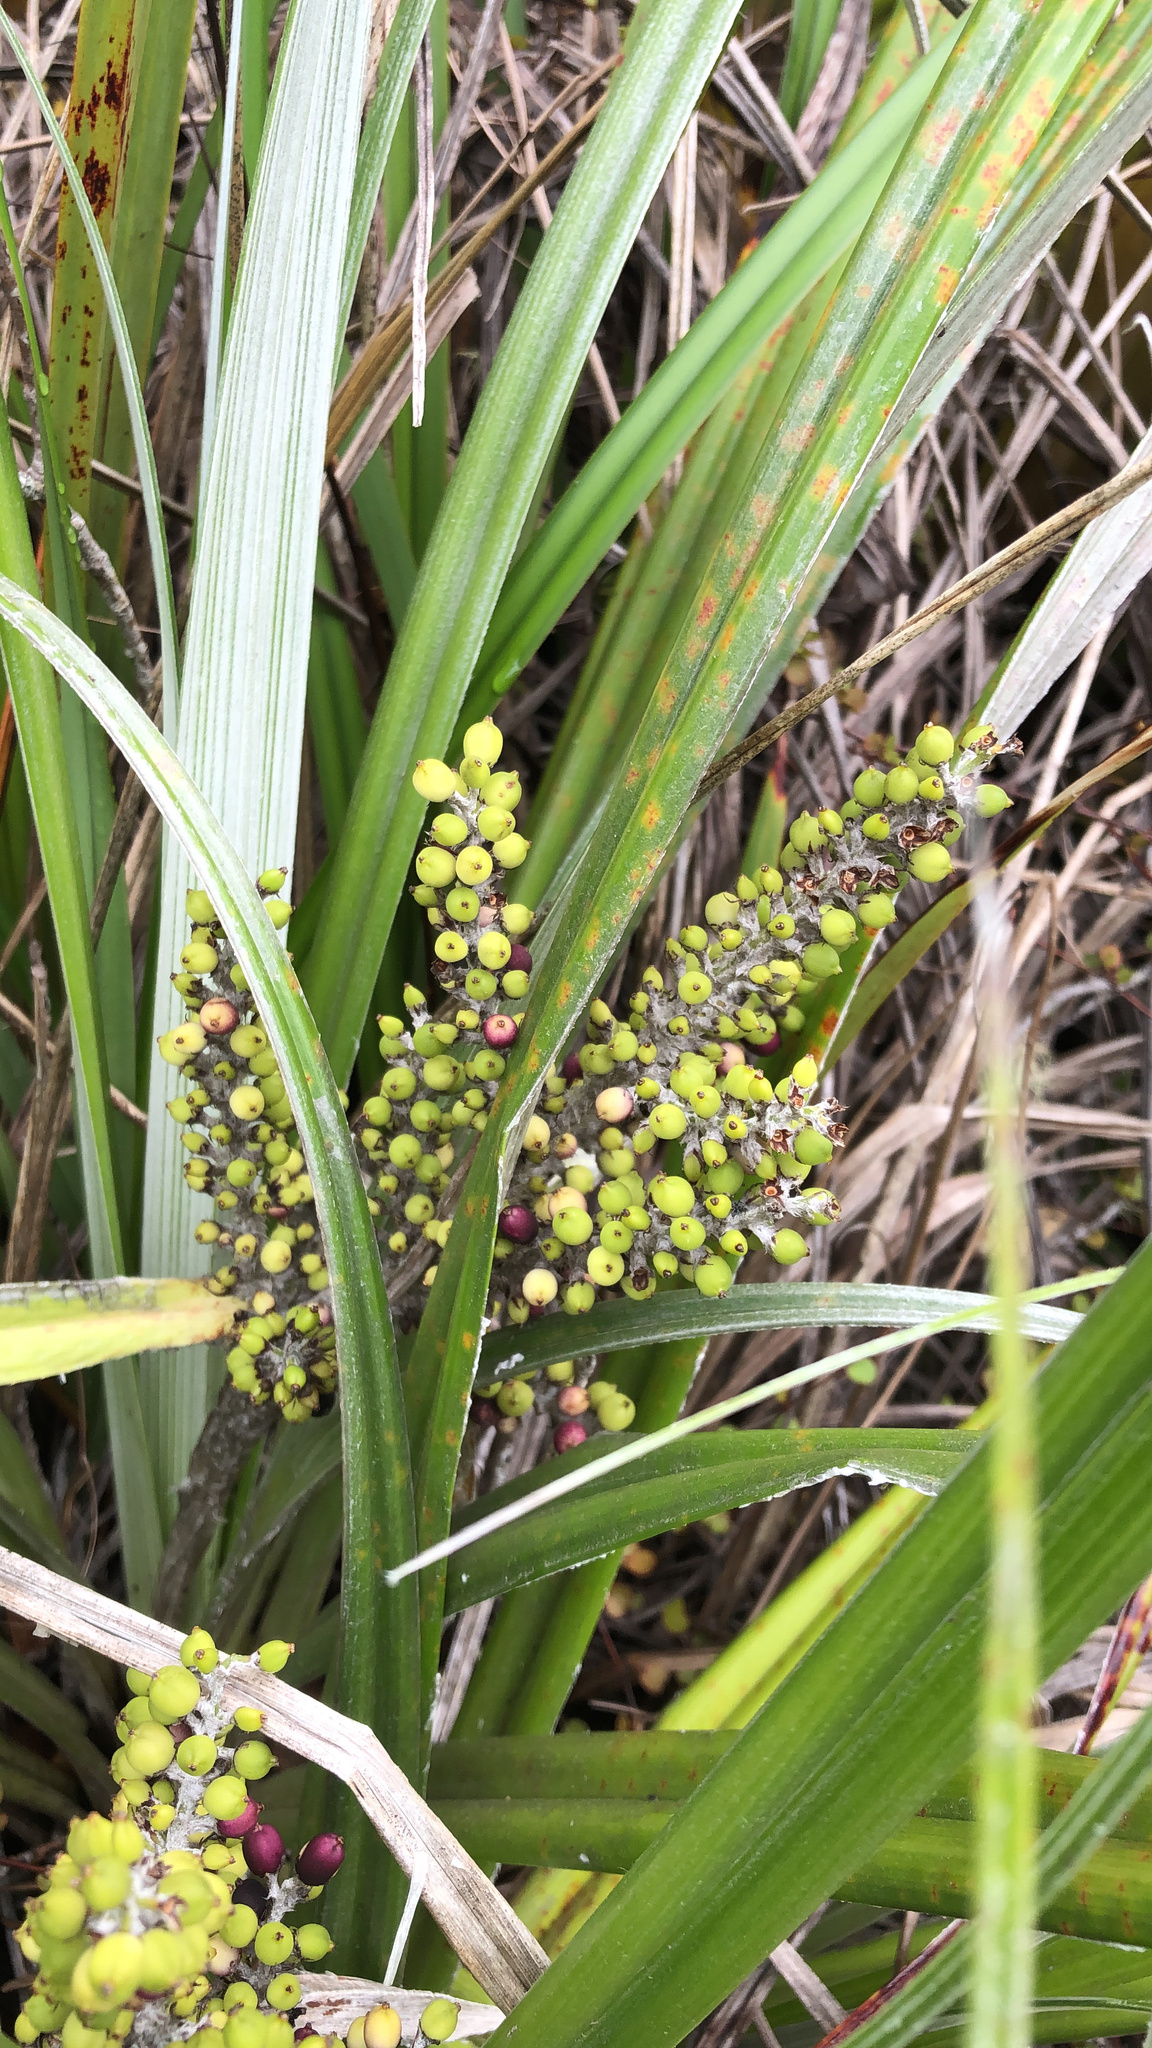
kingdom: Plantae
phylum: Tracheophyta
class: Liliopsida
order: Asparagales
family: Asteliaceae
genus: Astelia
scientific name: Astelia banksii
